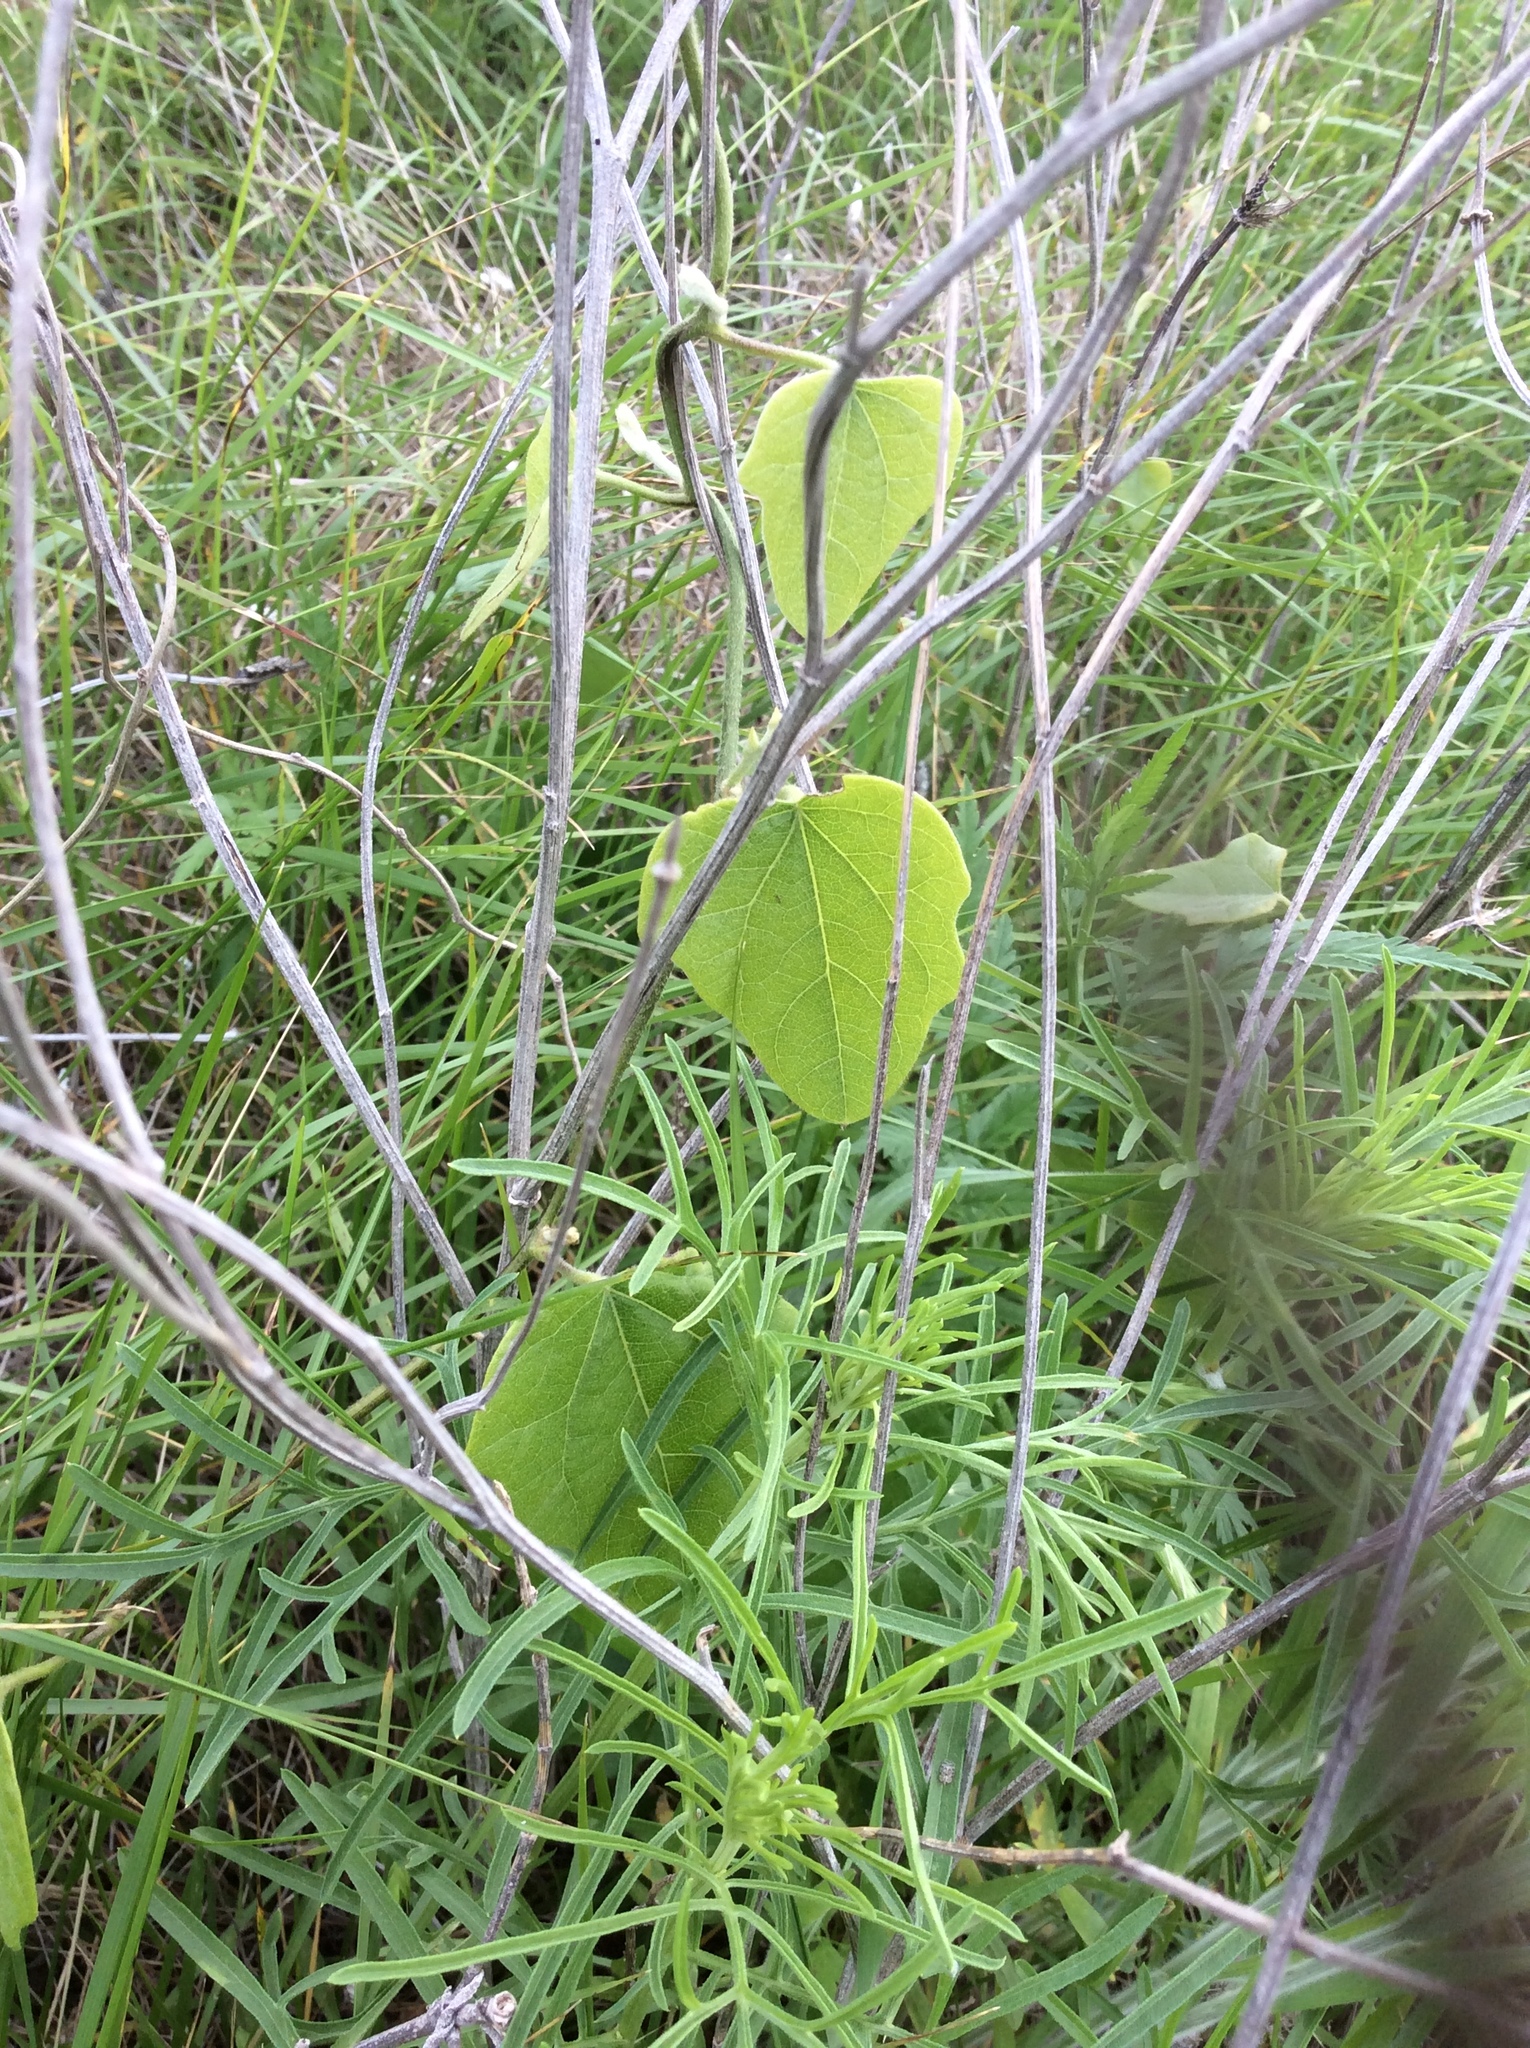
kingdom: Plantae
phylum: Tracheophyta
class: Magnoliopsida
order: Ranunculales
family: Menispermaceae
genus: Cocculus
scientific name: Cocculus carolinus
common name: Carolina moonseed
